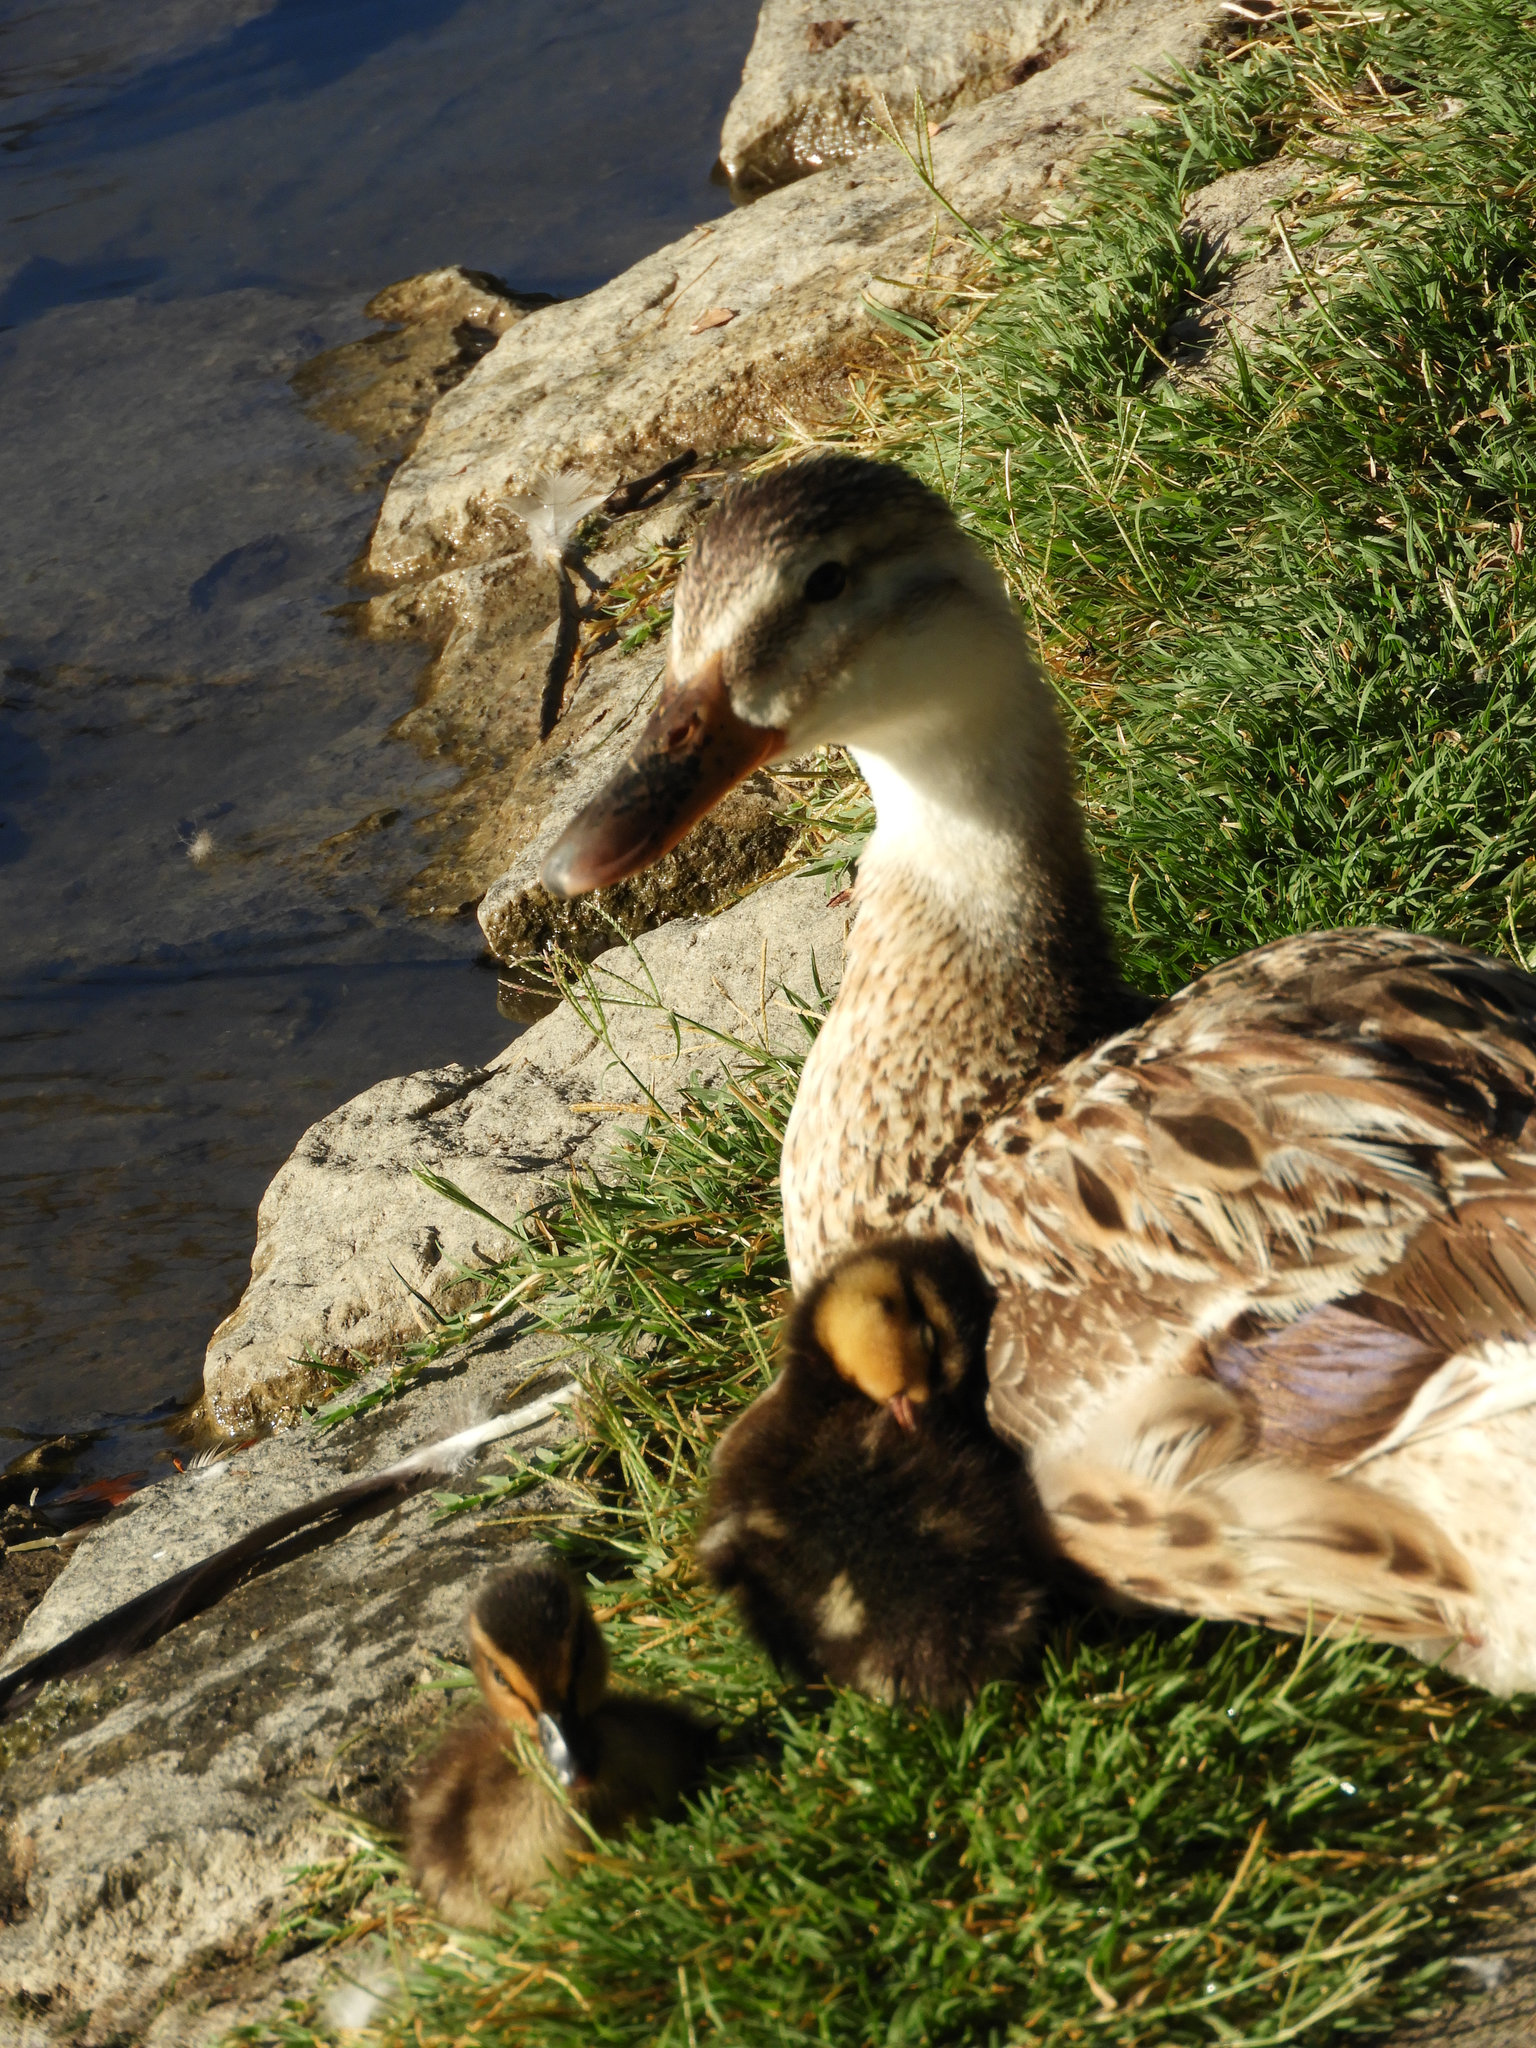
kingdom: Animalia
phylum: Chordata
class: Aves
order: Anseriformes
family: Anatidae
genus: Anas
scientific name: Anas platyrhynchos
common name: Mallard
